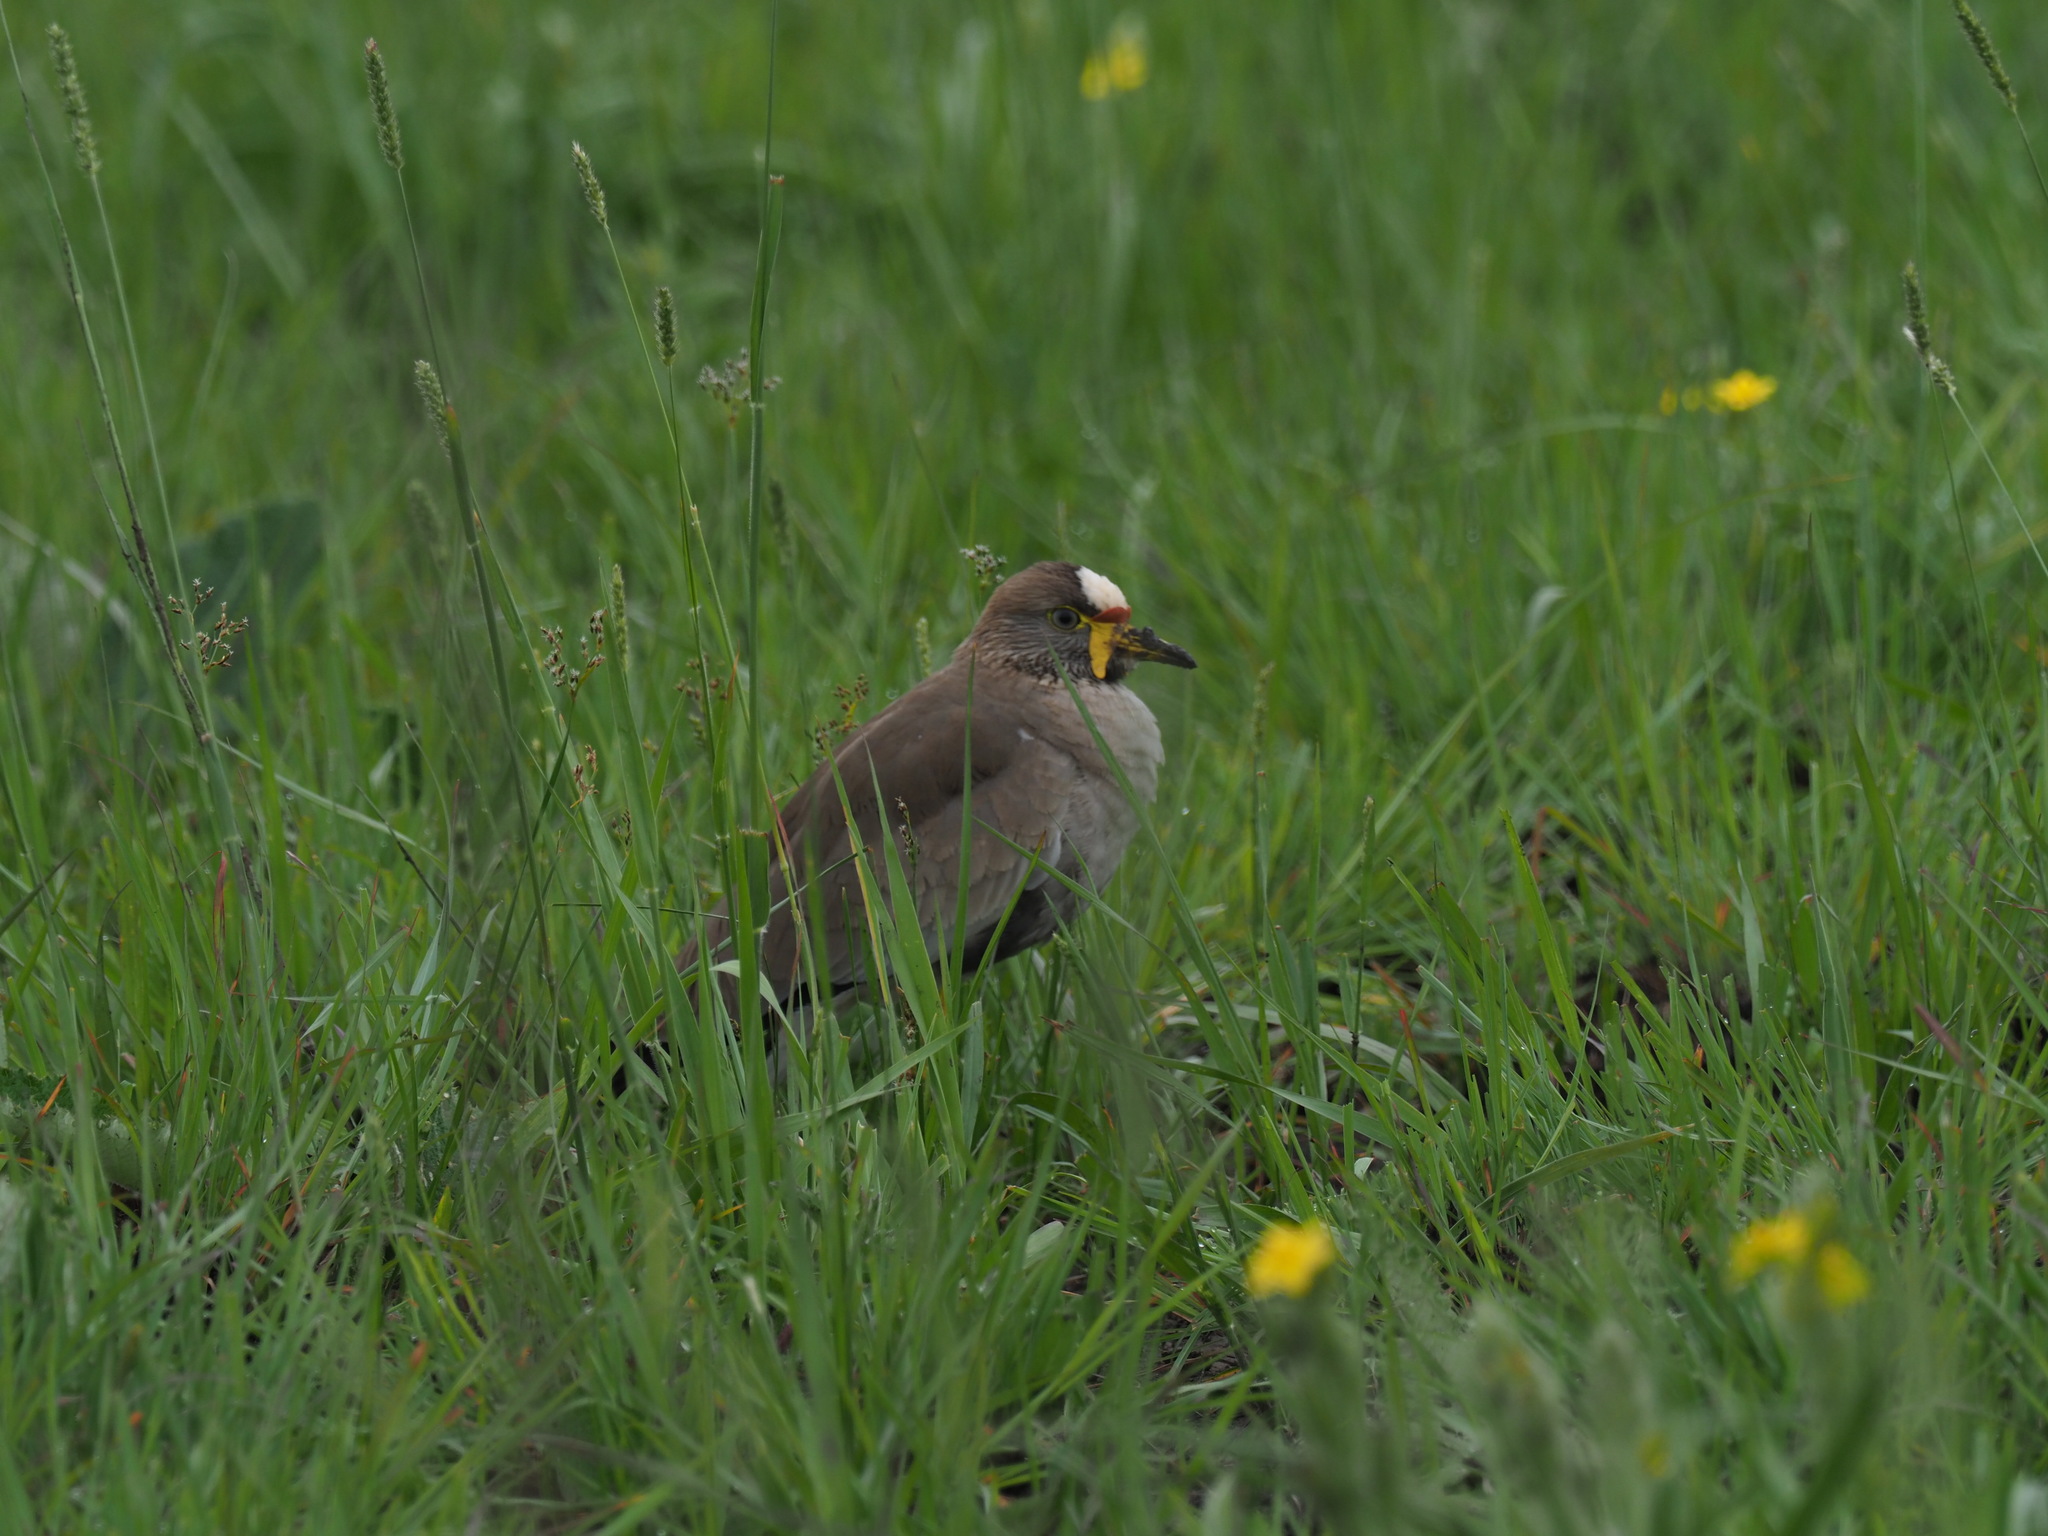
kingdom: Animalia
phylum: Chordata
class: Aves
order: Charadriiformes
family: Charadriidae
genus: Vanellus
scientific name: Vanellus senegallus
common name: African wattled lapwing
